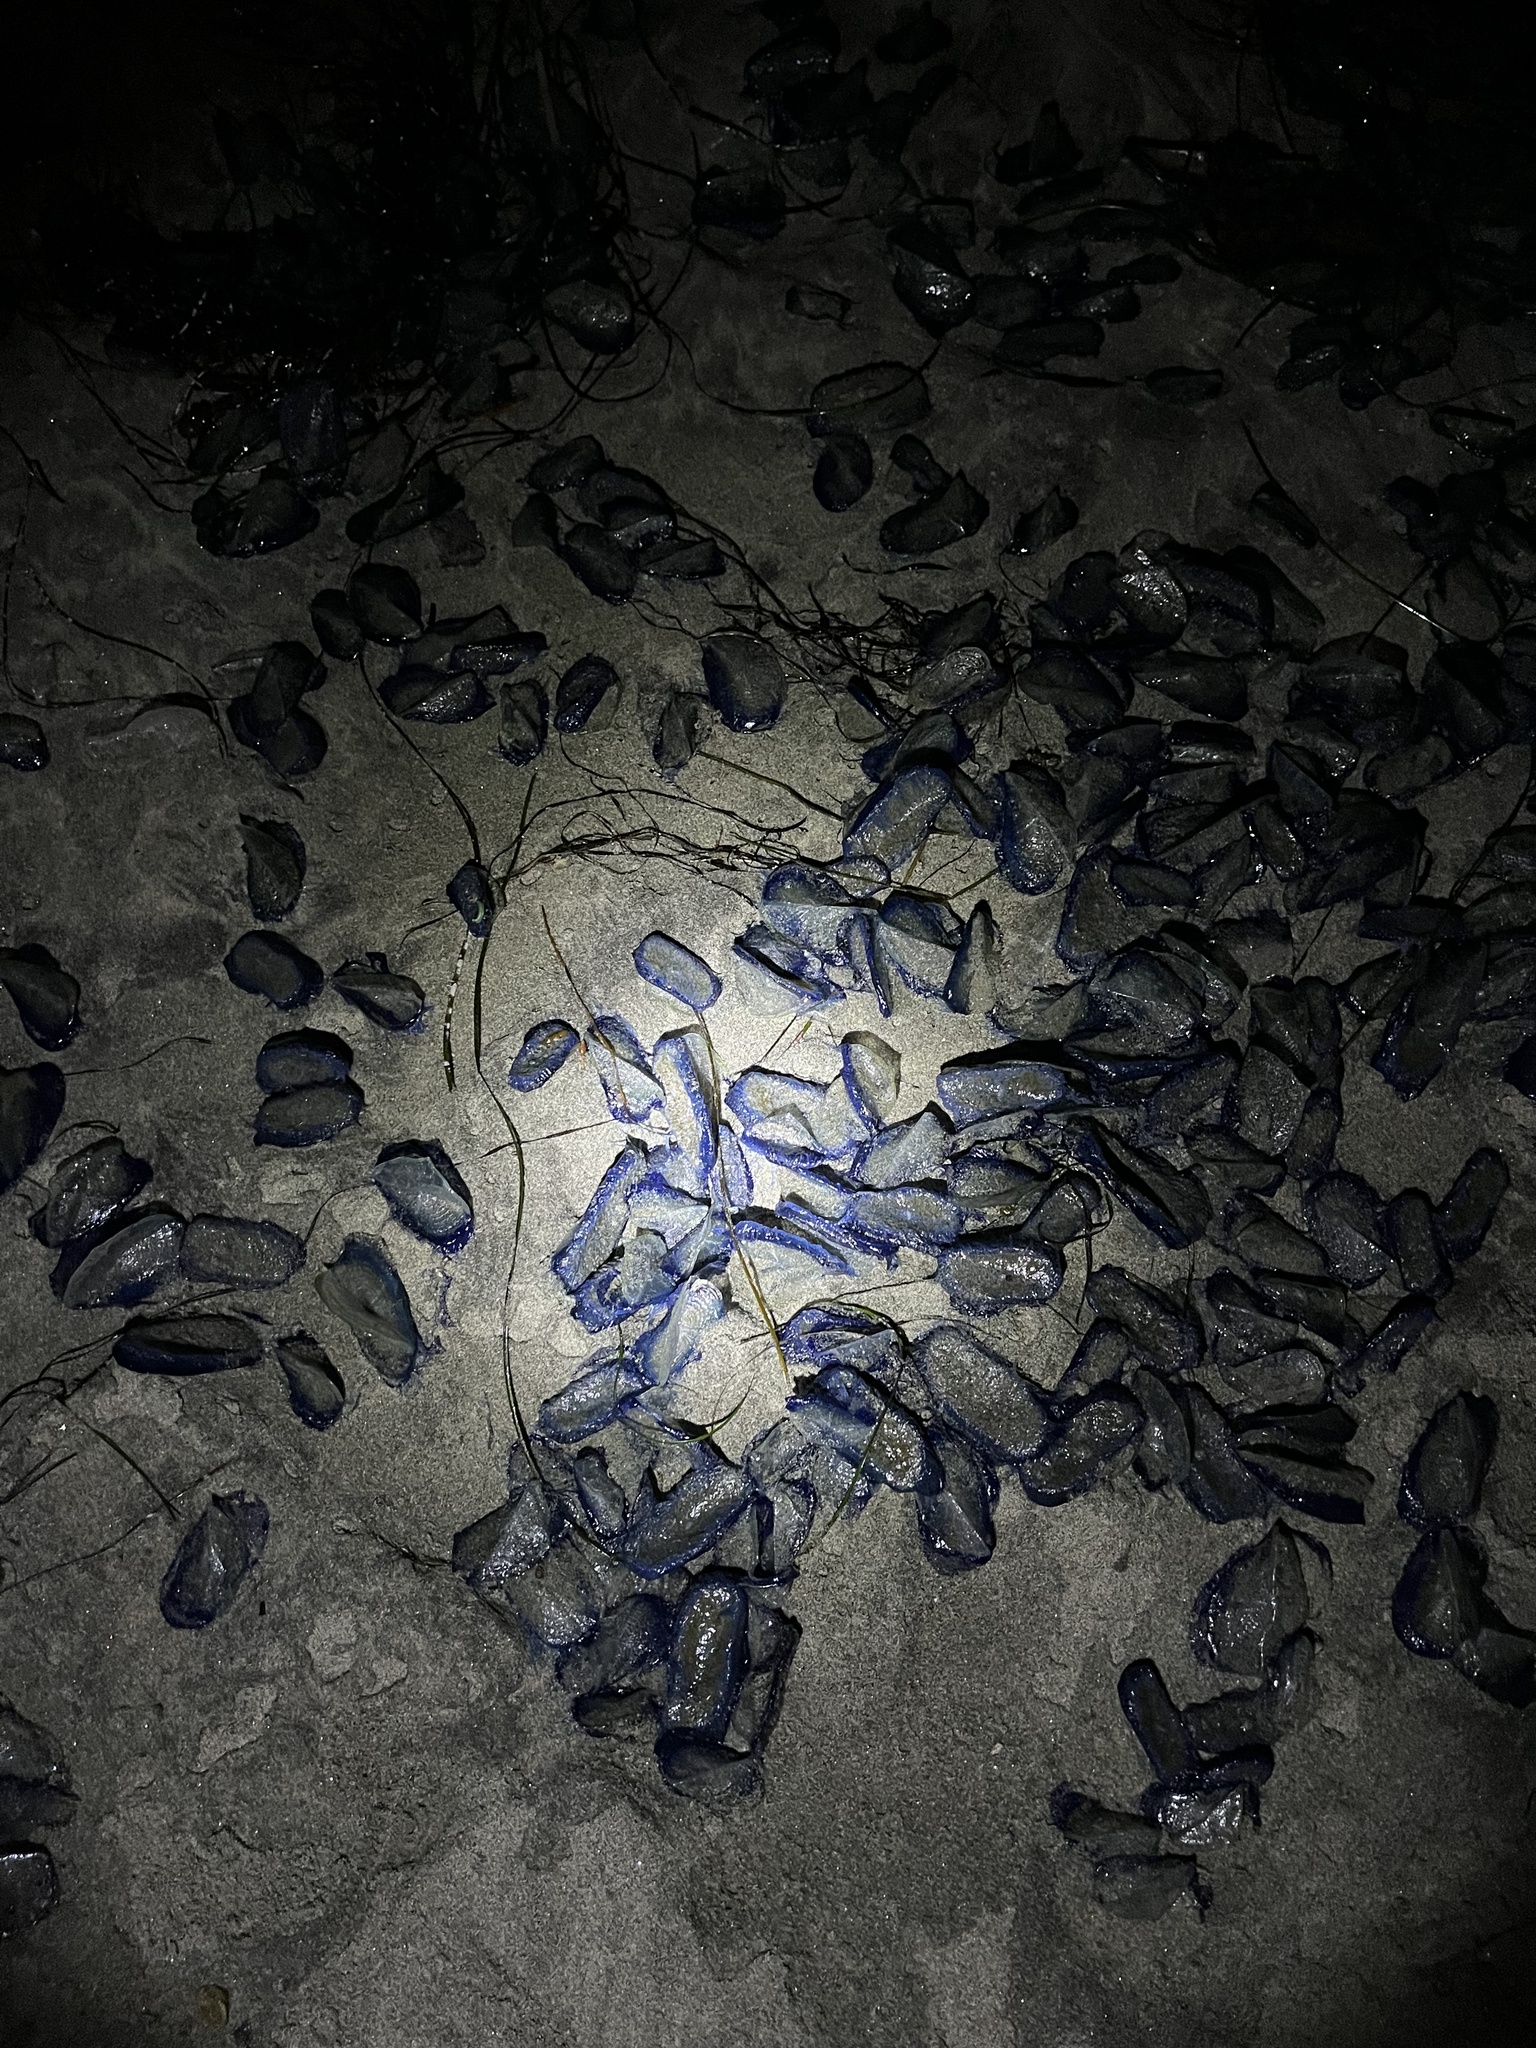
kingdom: Animalia
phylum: Cnidaria
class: Hydrozoa
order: Anthoathecata
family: Porpitidae
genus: Velella
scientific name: Velella velella
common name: By-the-wind-sailor
